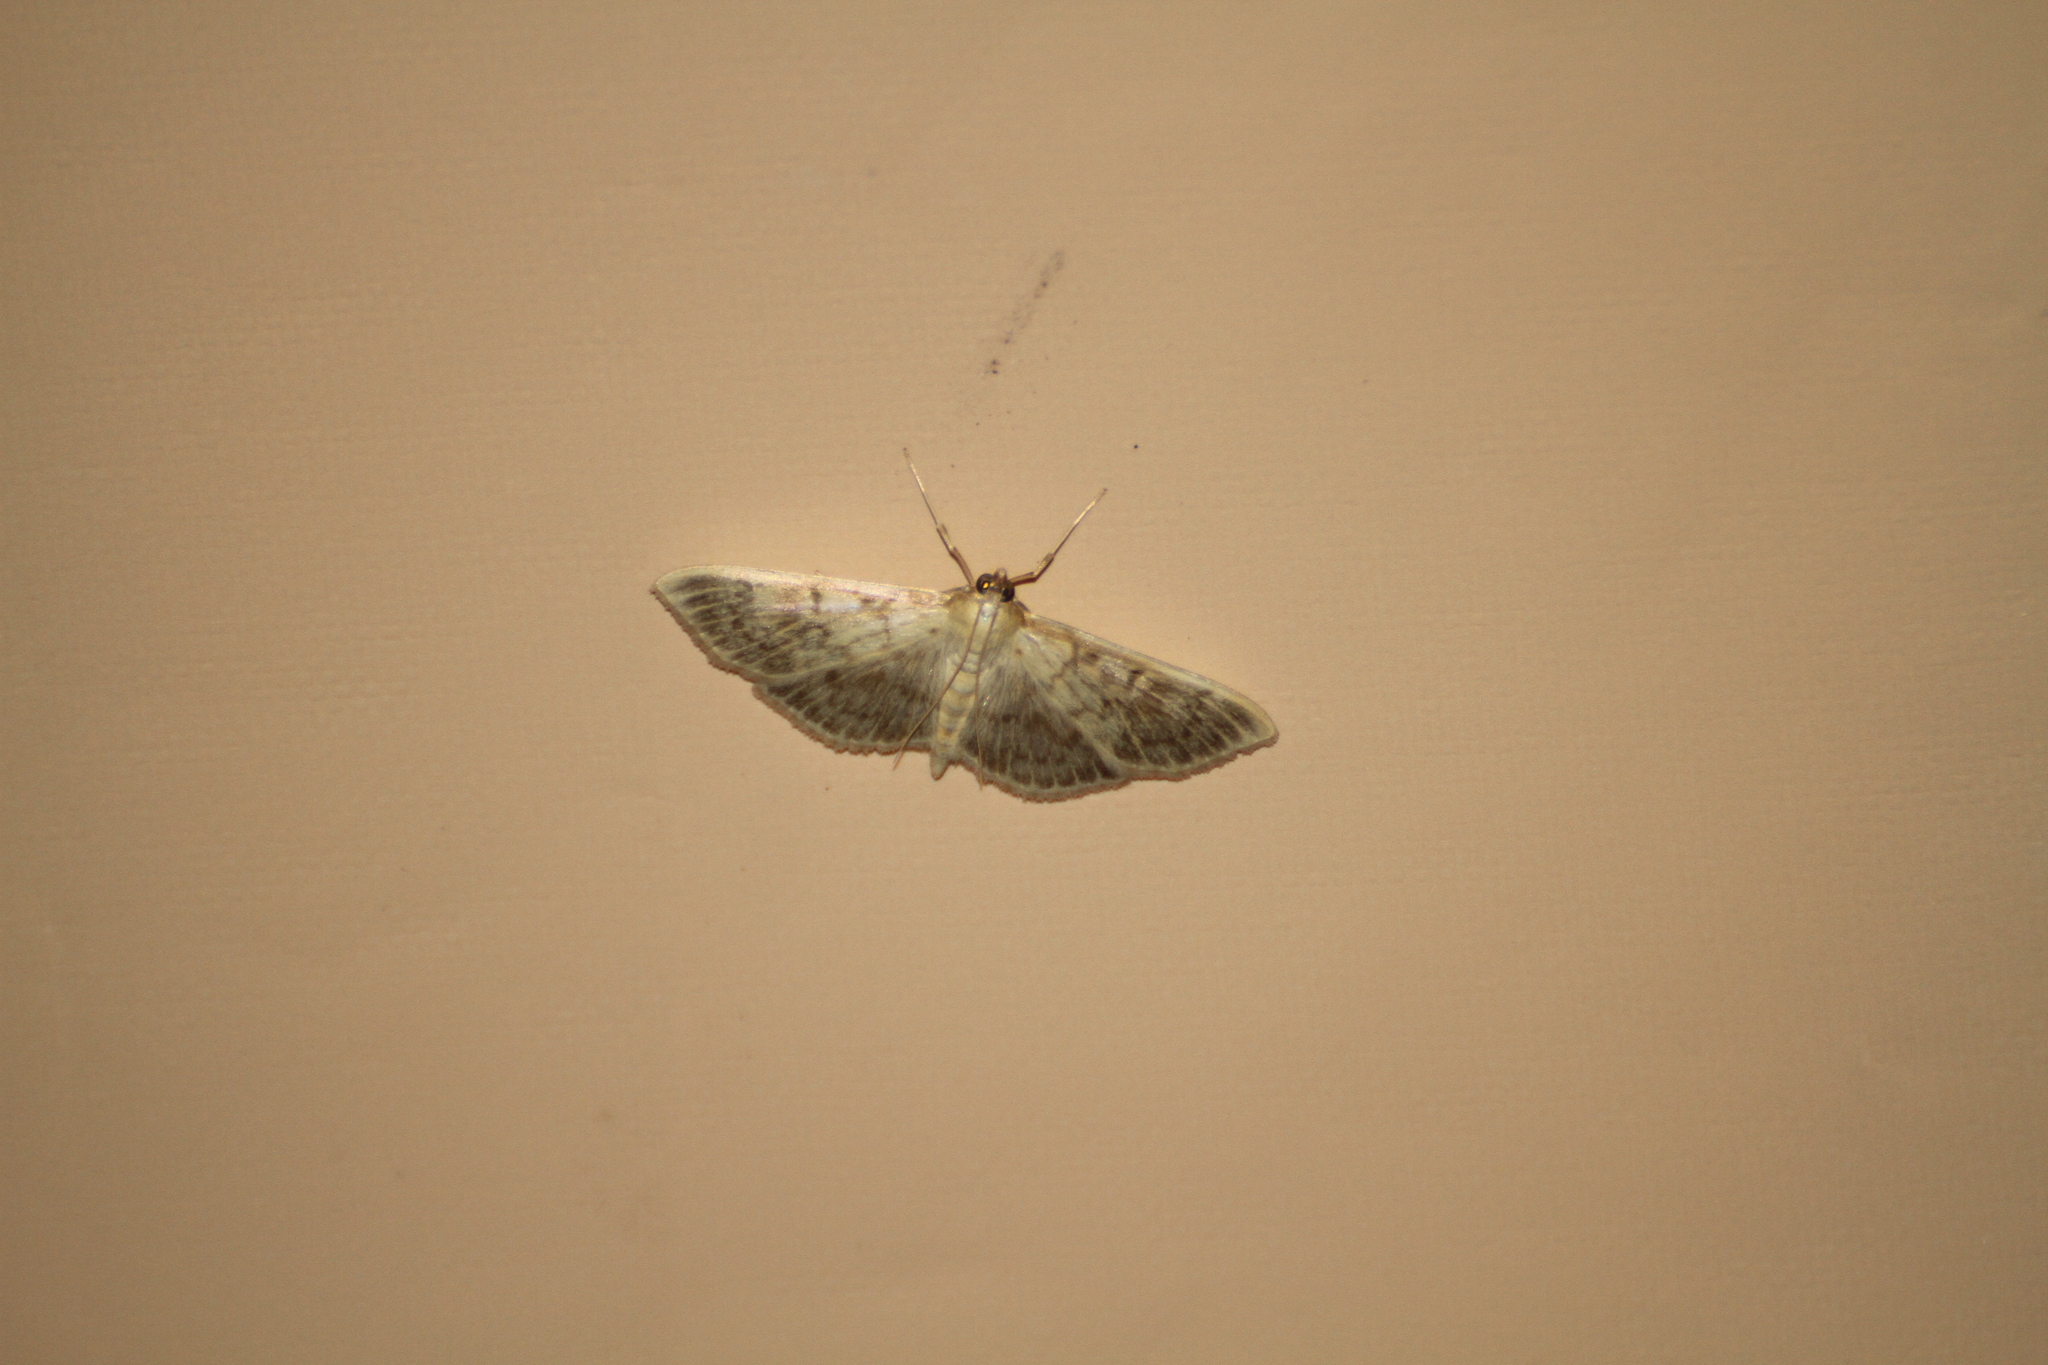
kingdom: Animalia
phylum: Arthropoda
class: Insecta
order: Lepidoptera
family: Crambidae
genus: Patania
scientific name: Patania ruralis
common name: Mother of pearl
